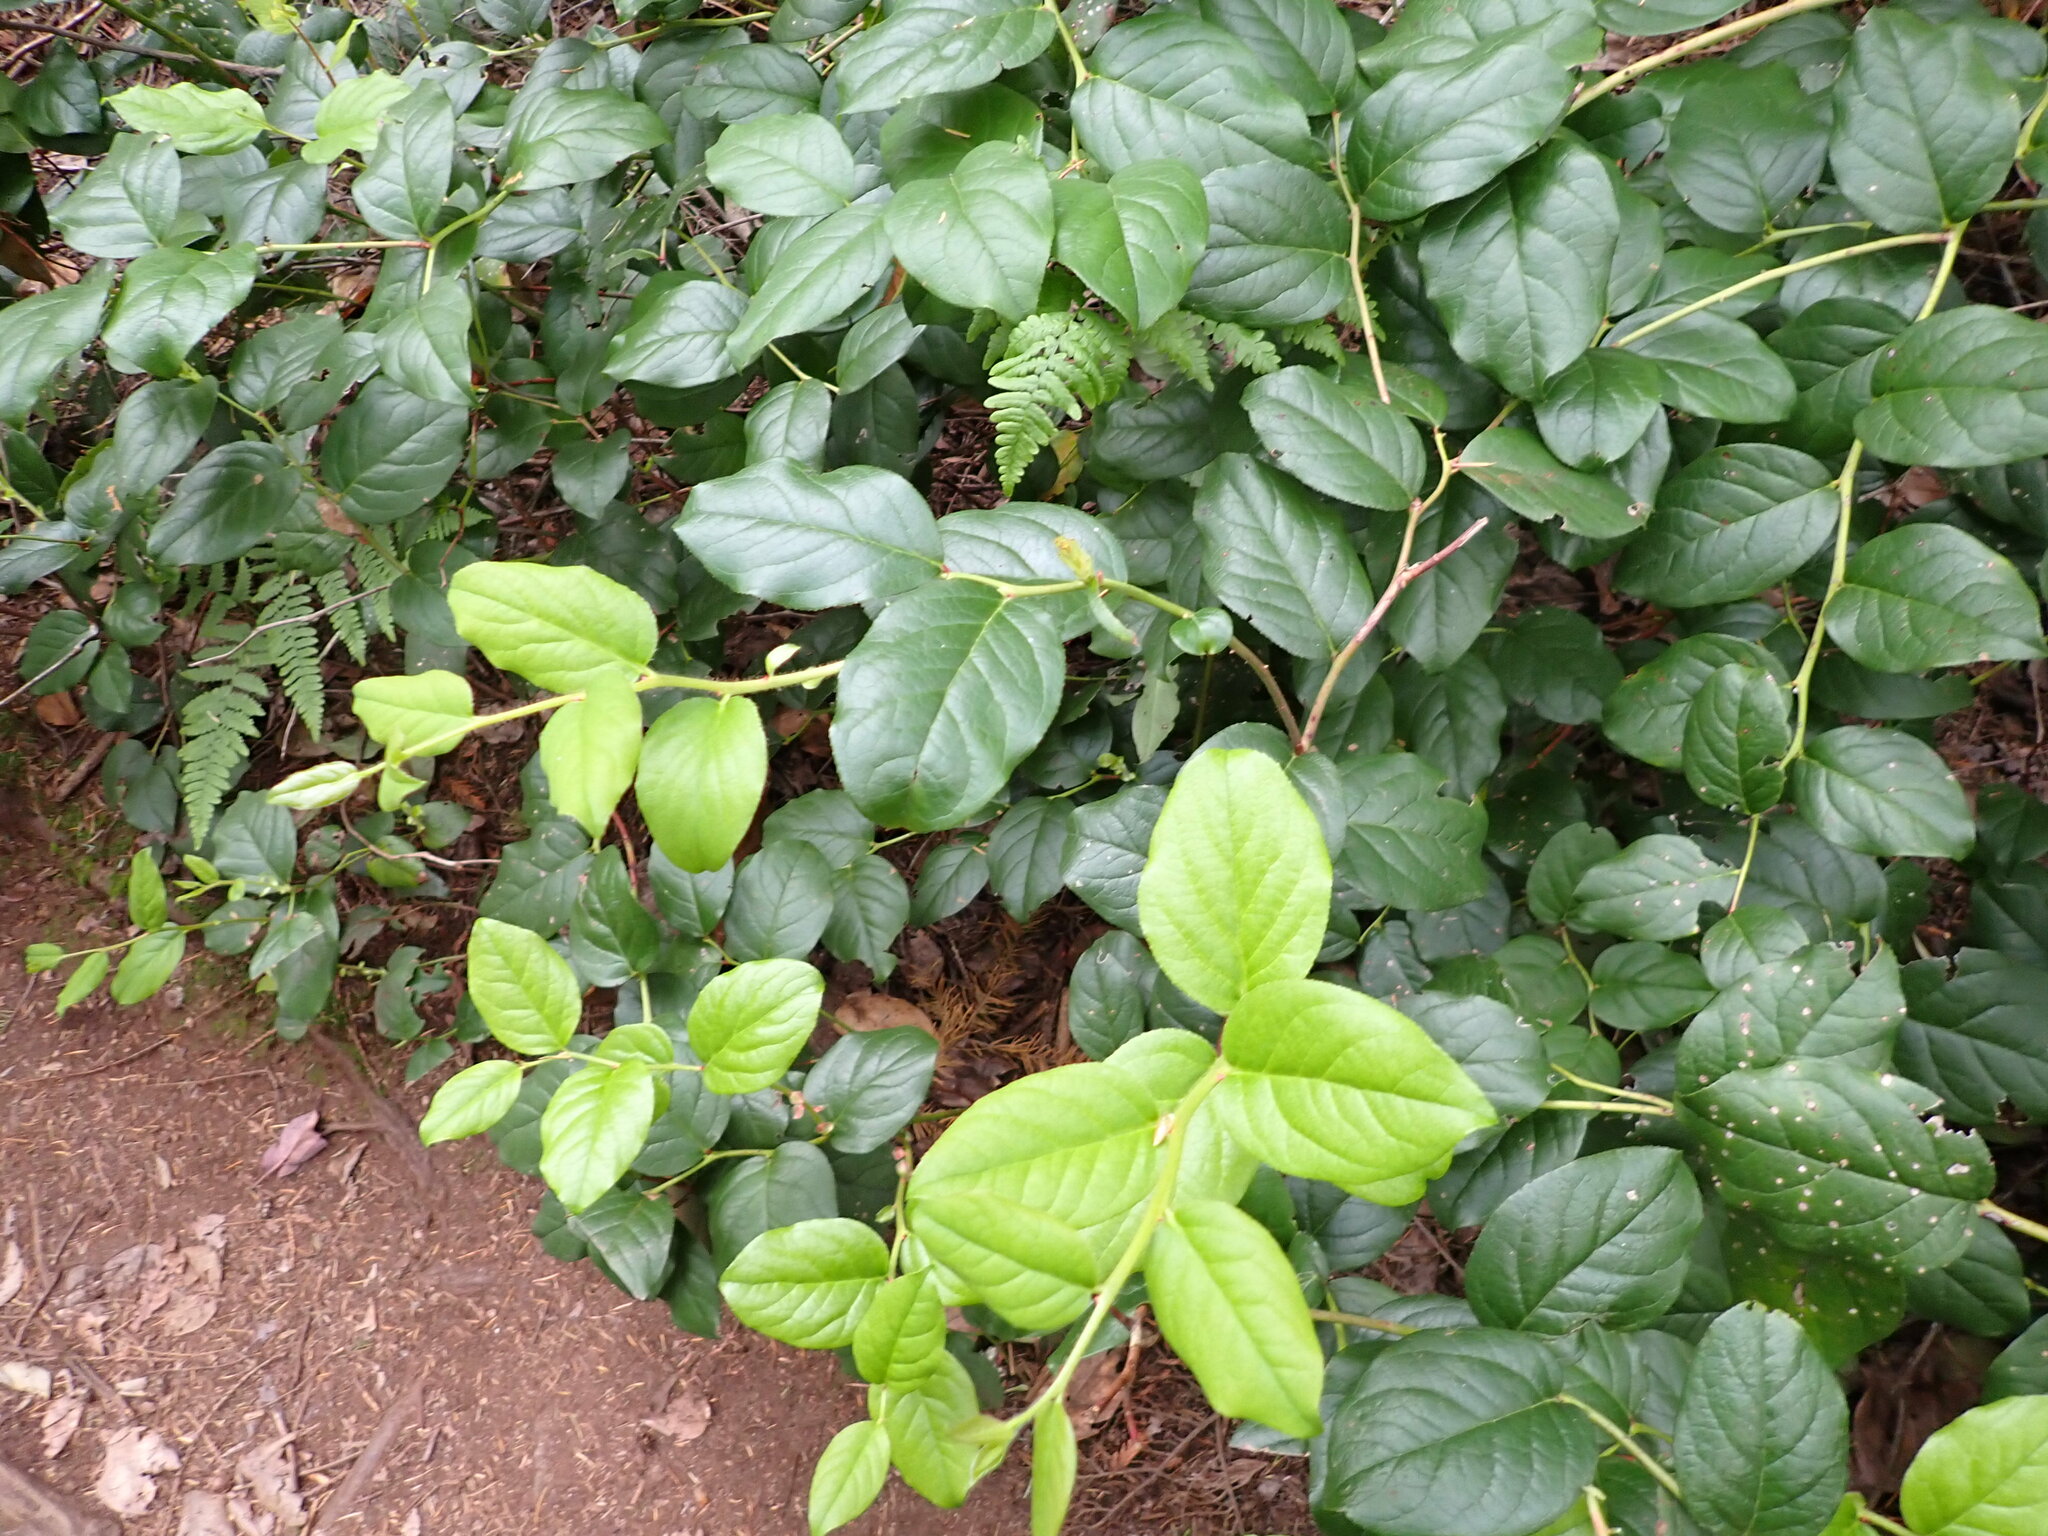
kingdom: Plantae
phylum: Tracheophyta
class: Magnoliopsida
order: Ericales
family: Ericaceae
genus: Gaultheria
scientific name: Gaultheria shallon
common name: Shallon
